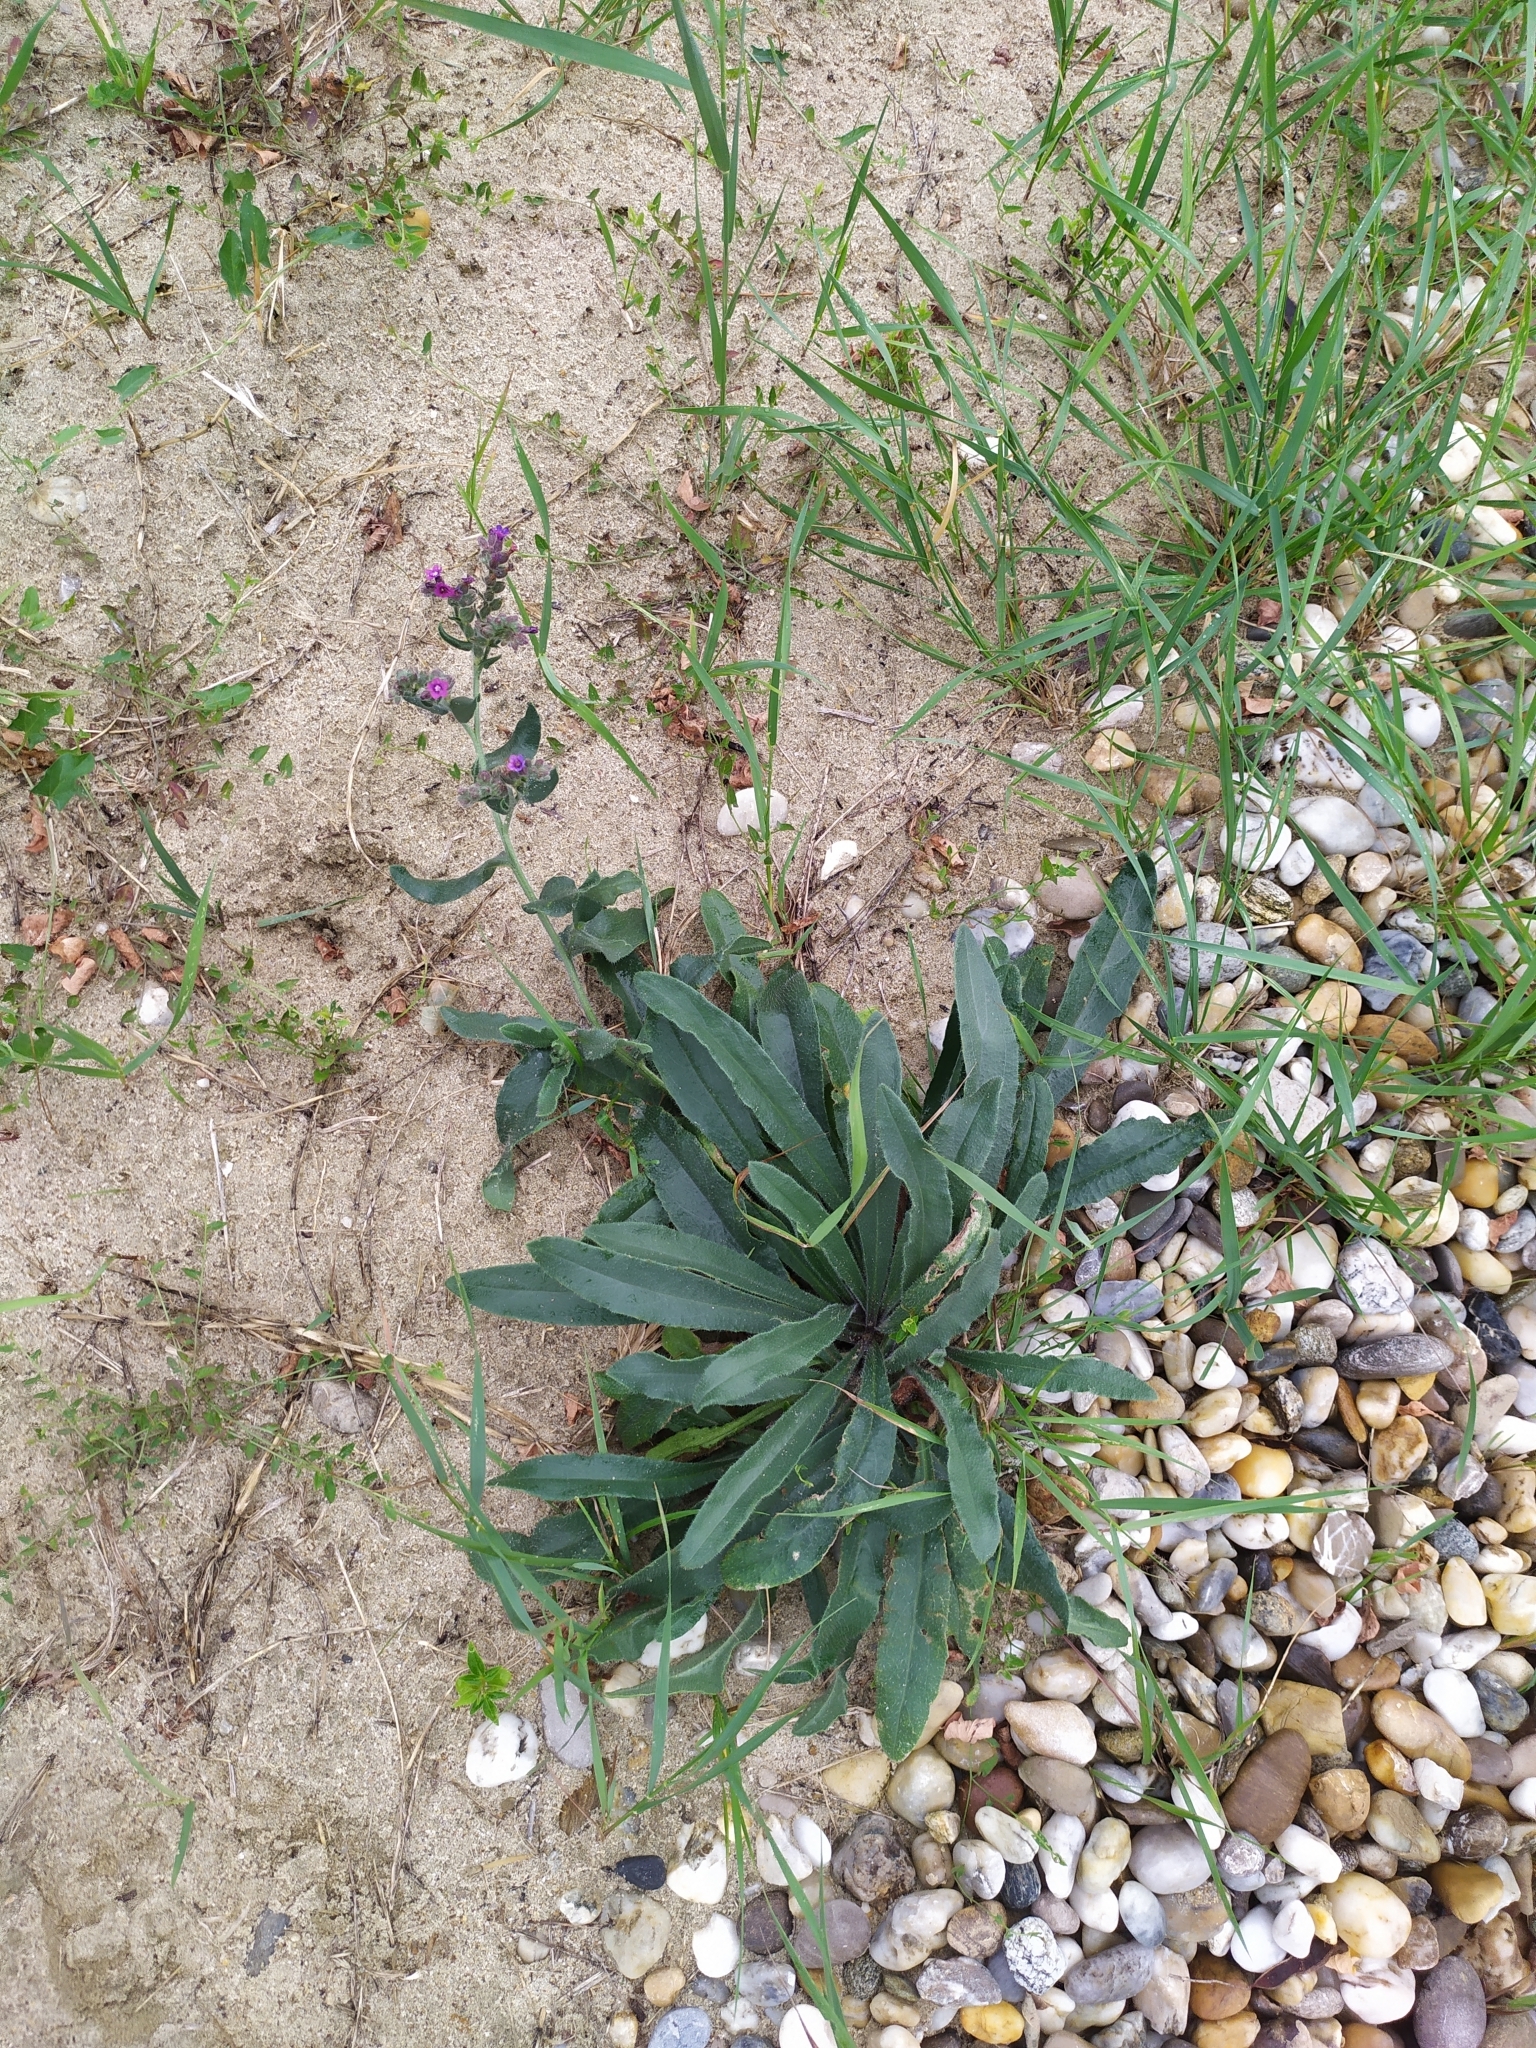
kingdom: Plantae
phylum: Tracheophyta
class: Magnoliopsida
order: Boraginales
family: Boraginaceae
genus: Anchusa
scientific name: Anchusa officinalis
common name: Alkanet
